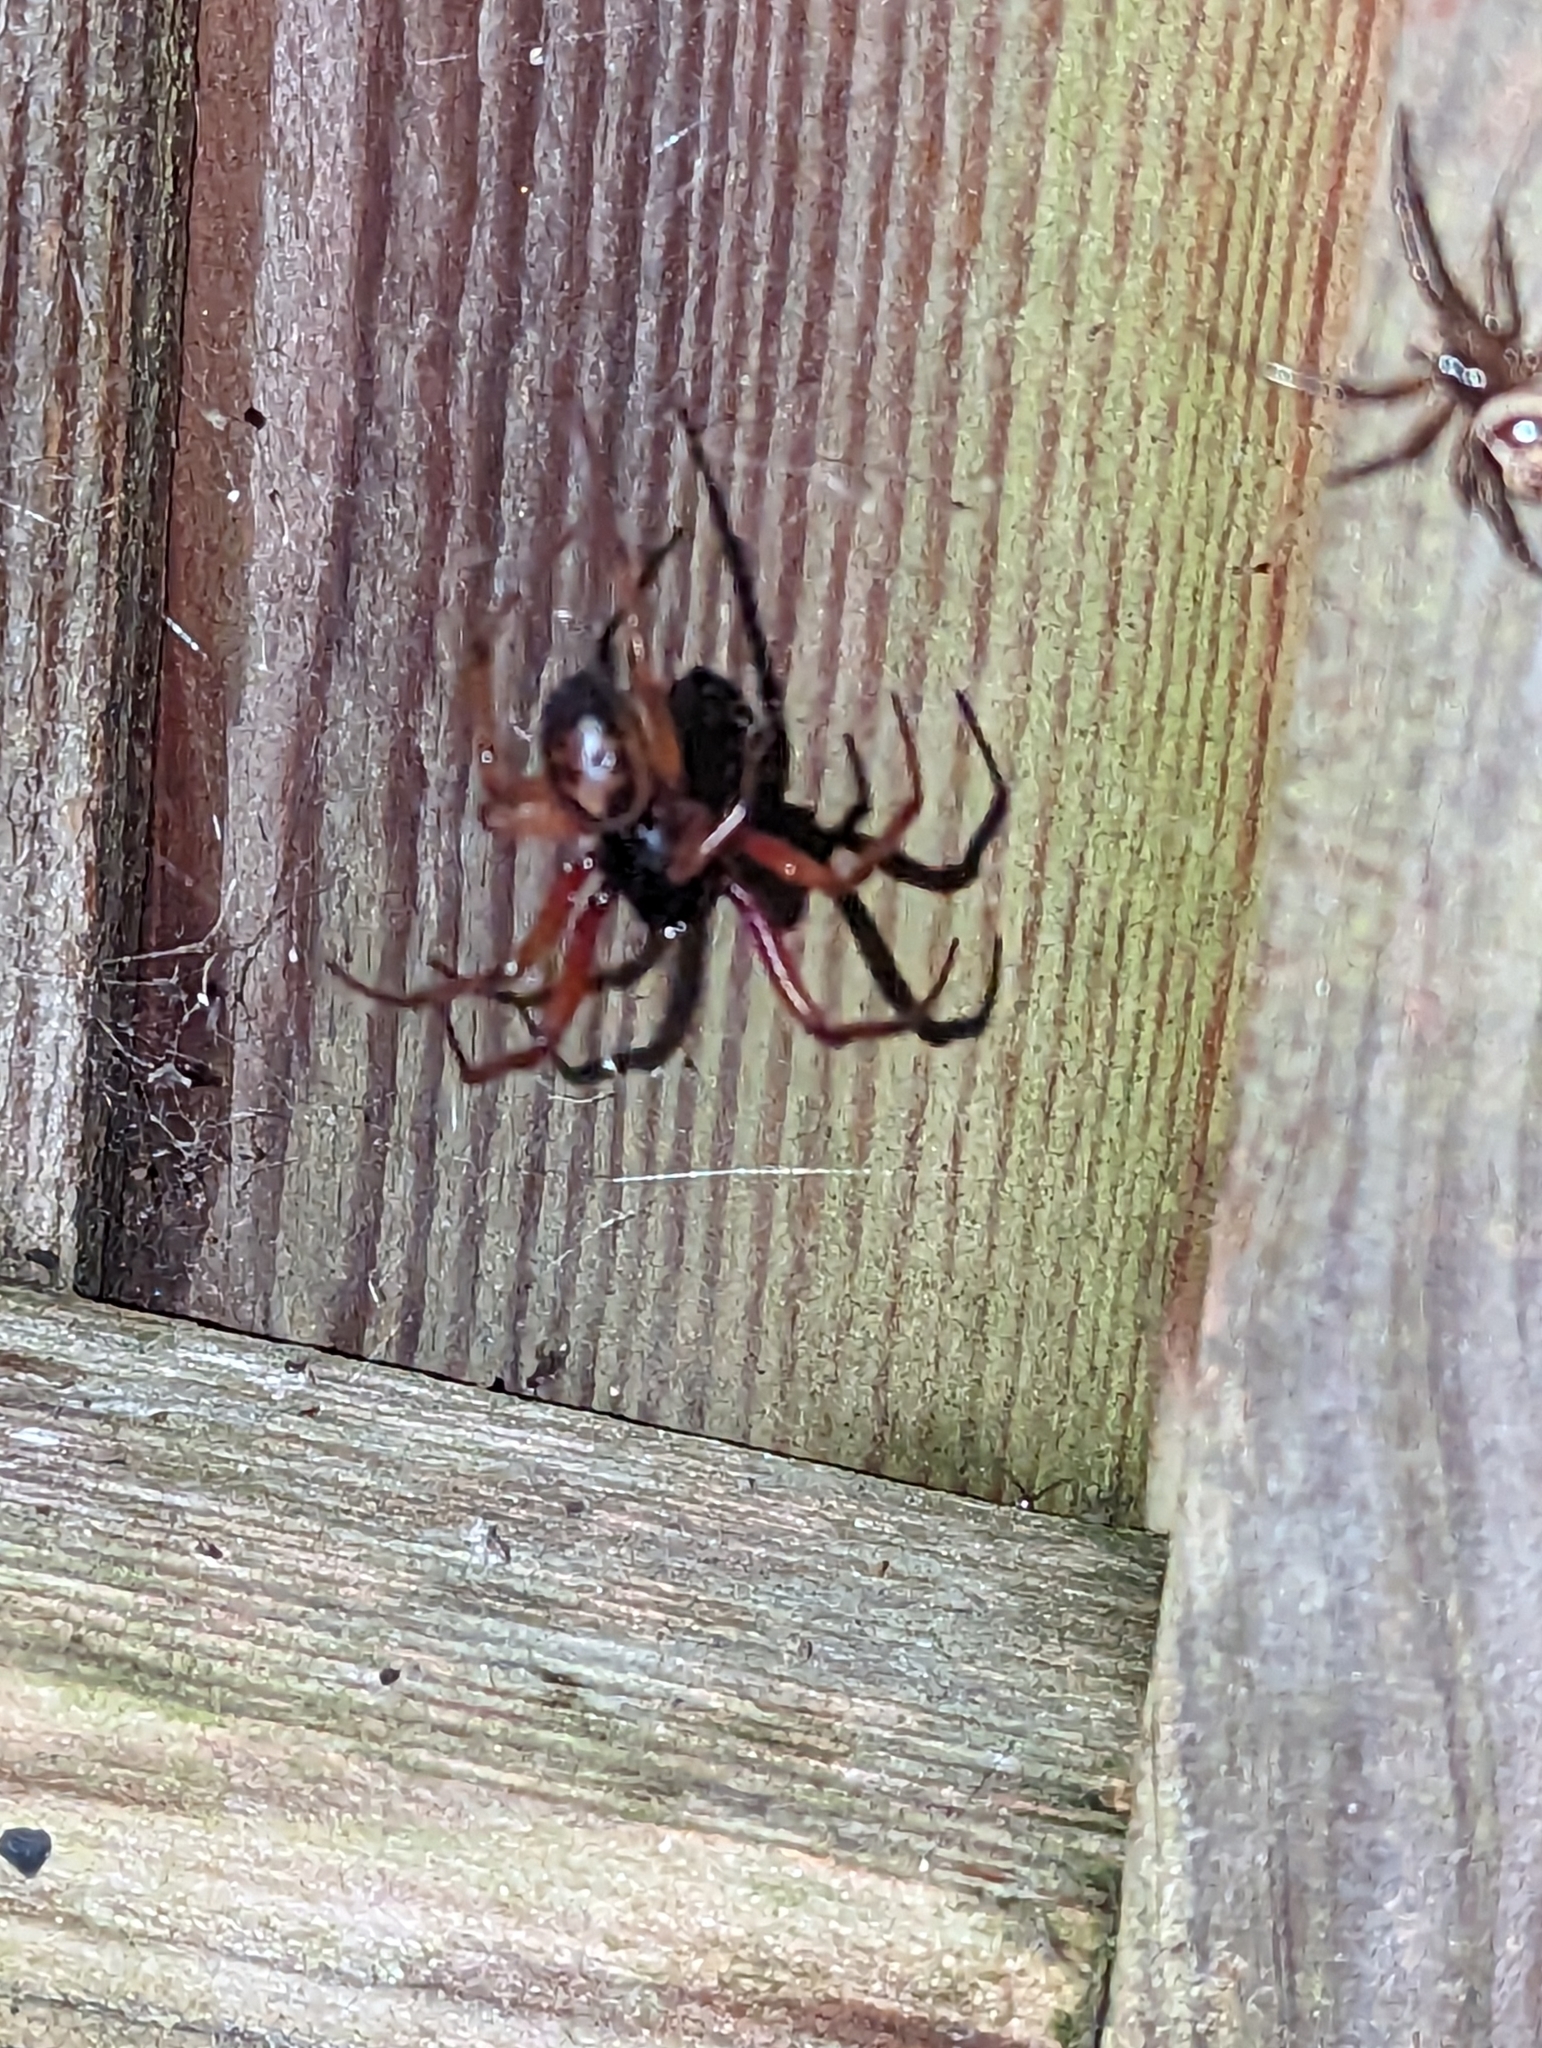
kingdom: Animalia
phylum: Arthropoda
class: Arachnida
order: Araneae
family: Theridiidae
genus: Steatoda
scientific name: Steatoda nobilis
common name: Cobweb weaver
